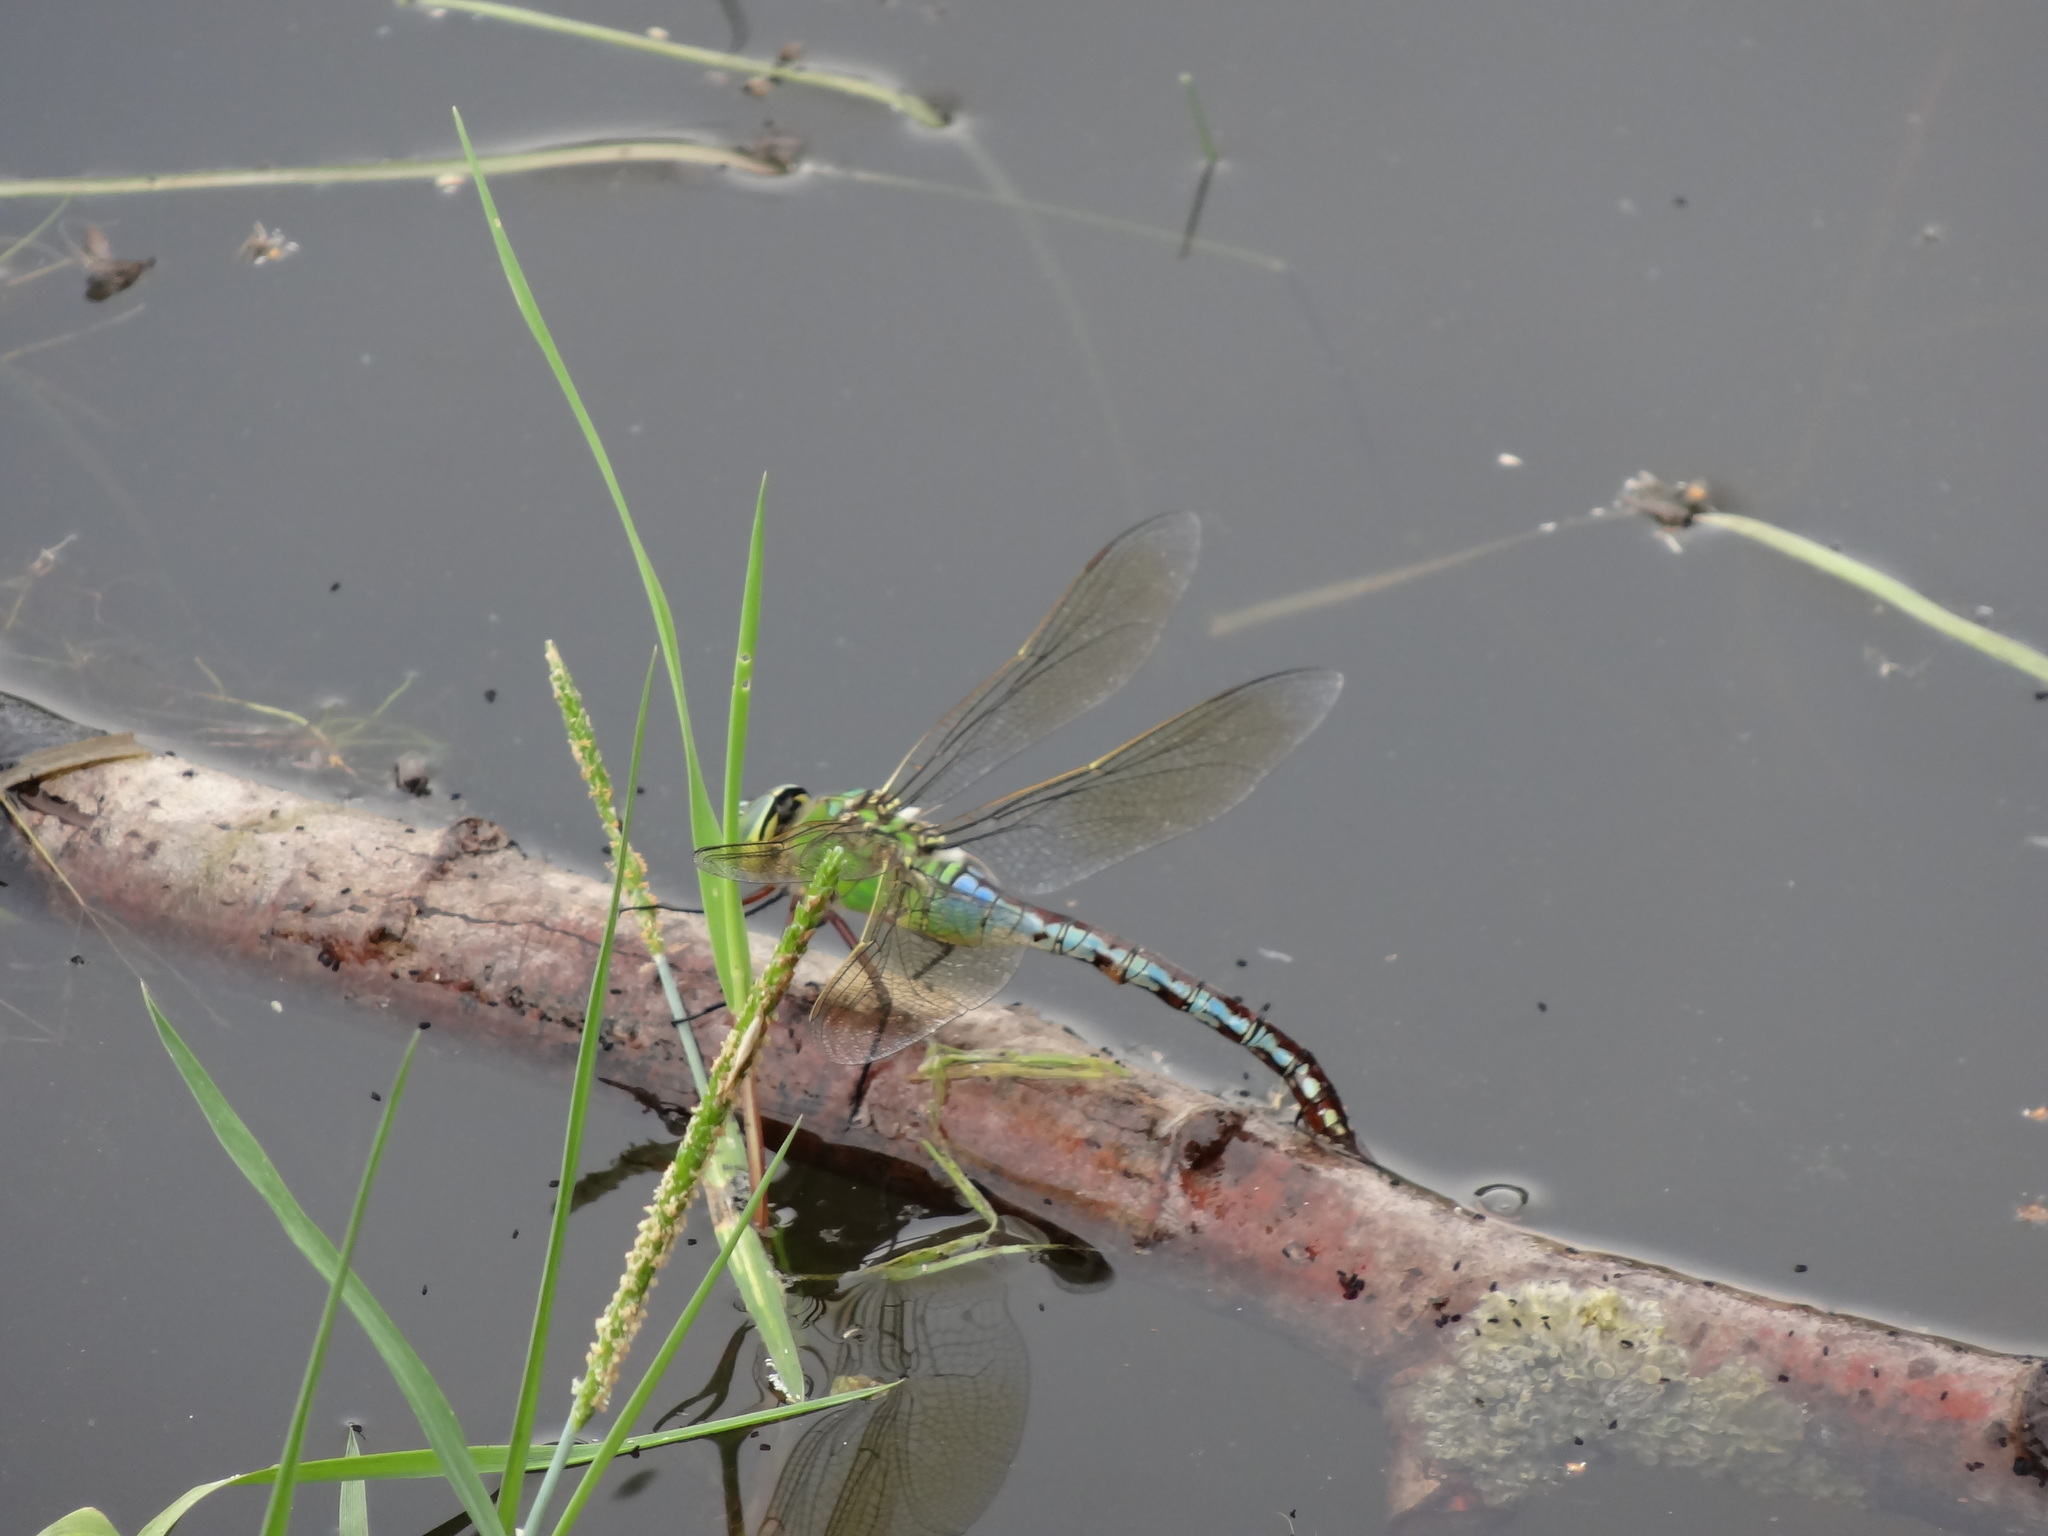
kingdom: Animalia
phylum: Arthropoda
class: Insecta
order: Odonata
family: Aeshnidae
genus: Anax
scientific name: Anax imperator
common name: Emperor dragonfly
